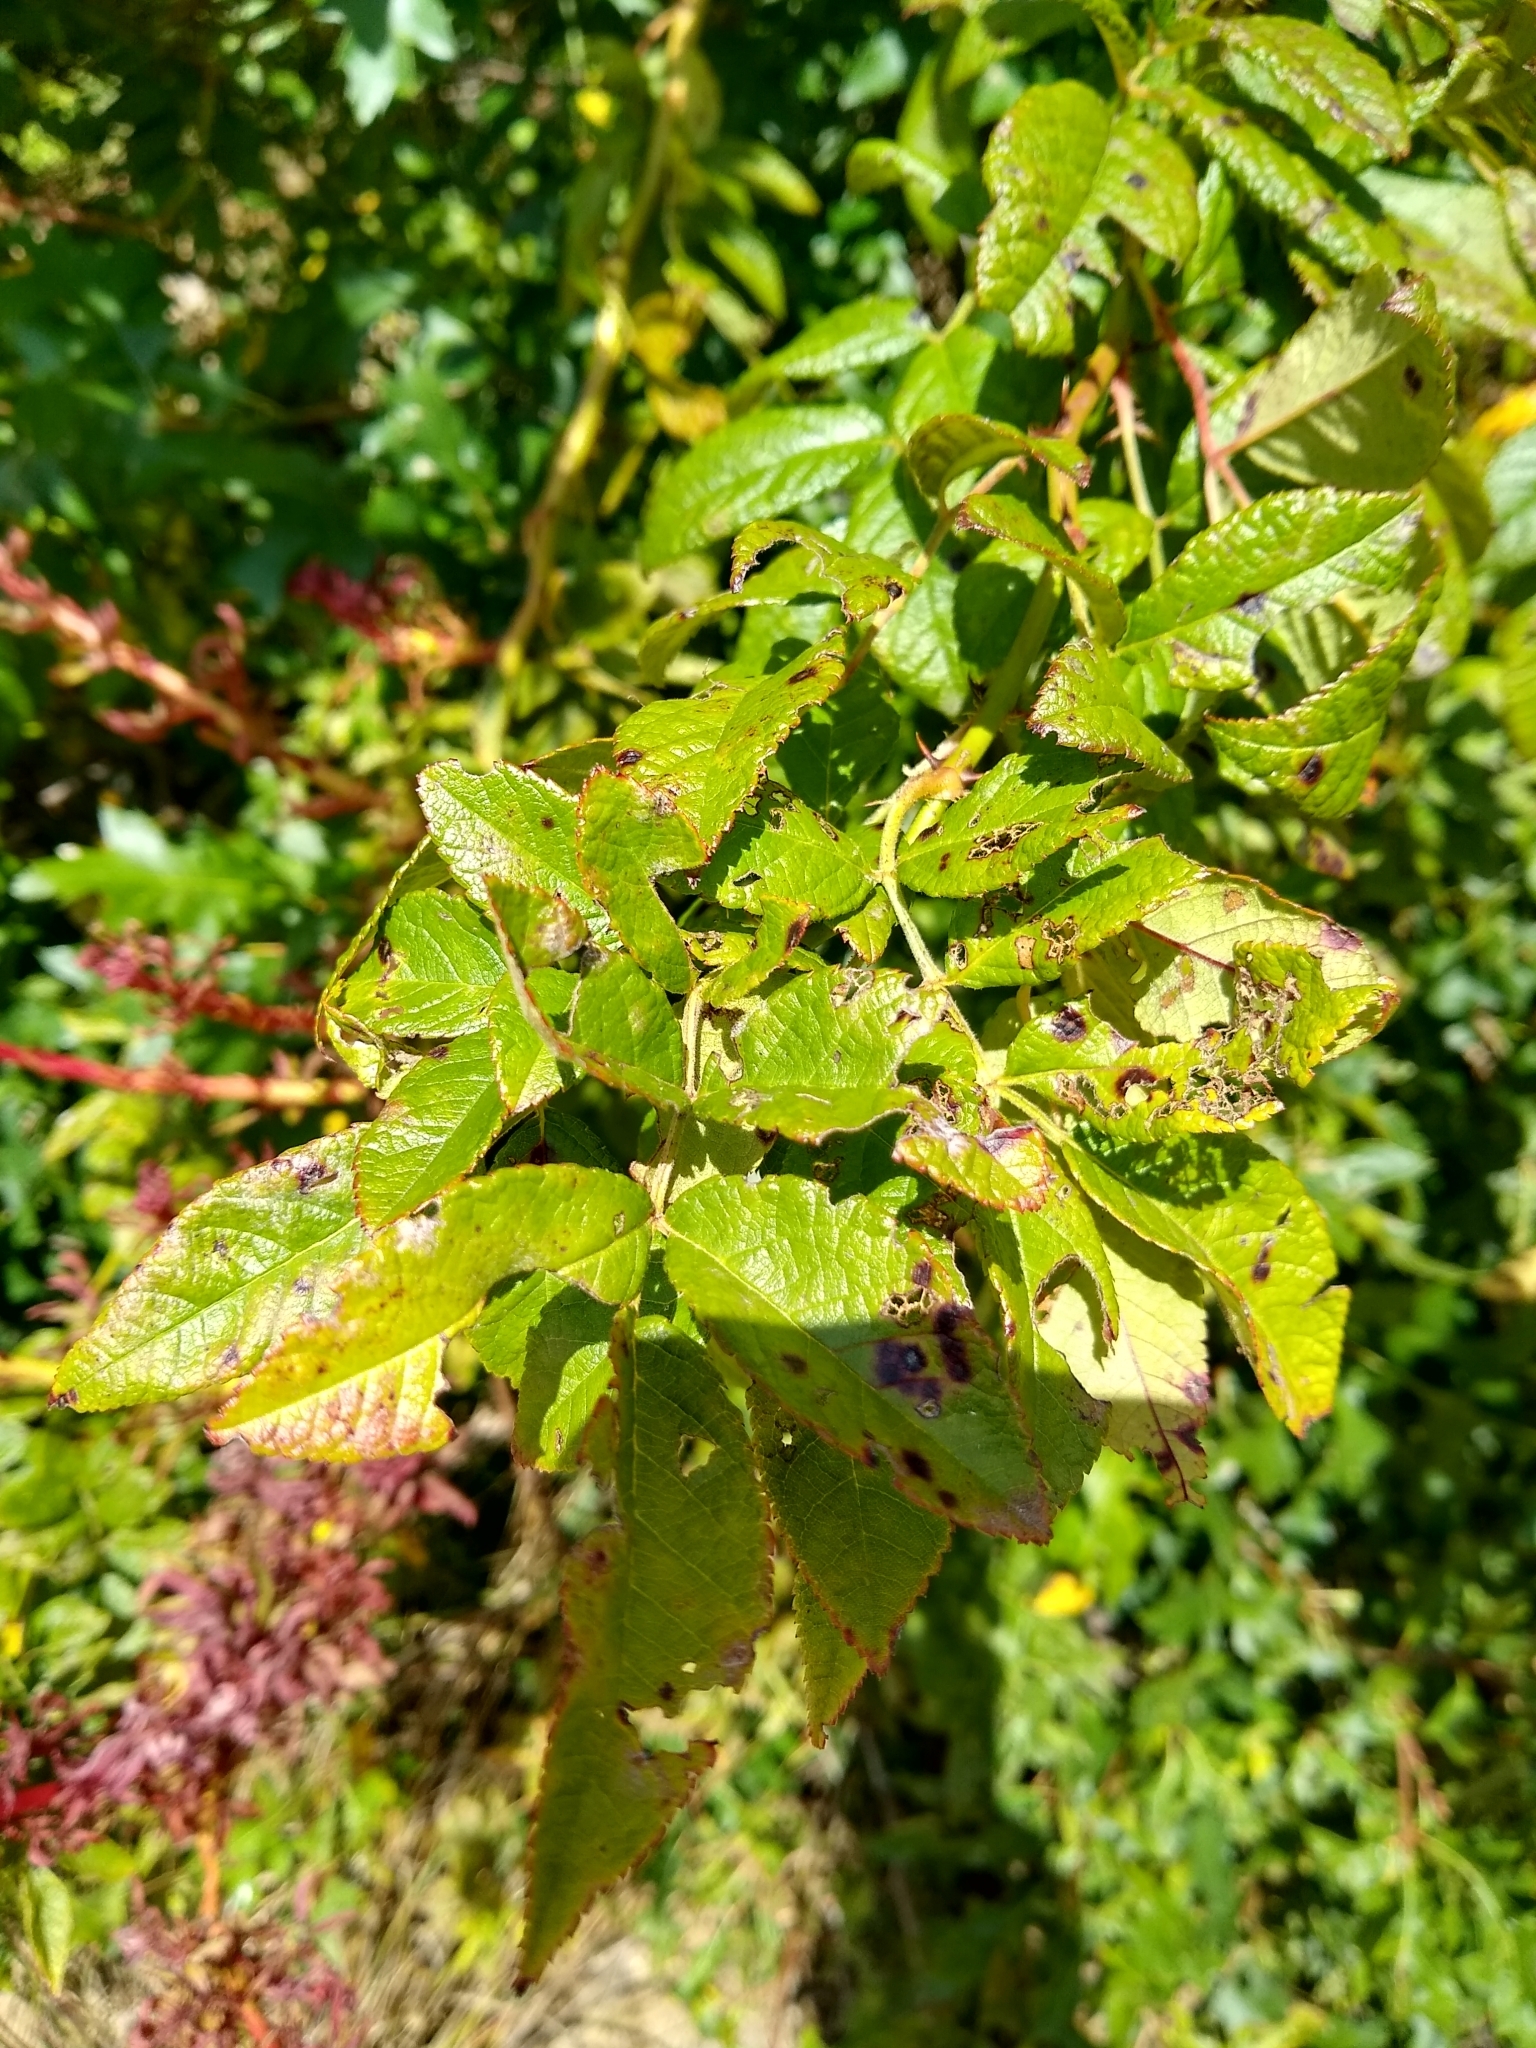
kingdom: Plantae
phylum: Tracheophyta
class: Magnoliopsida
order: Rosales
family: Rosaceae
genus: Rosa
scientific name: Rosa multiflora
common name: Multiflora rose
